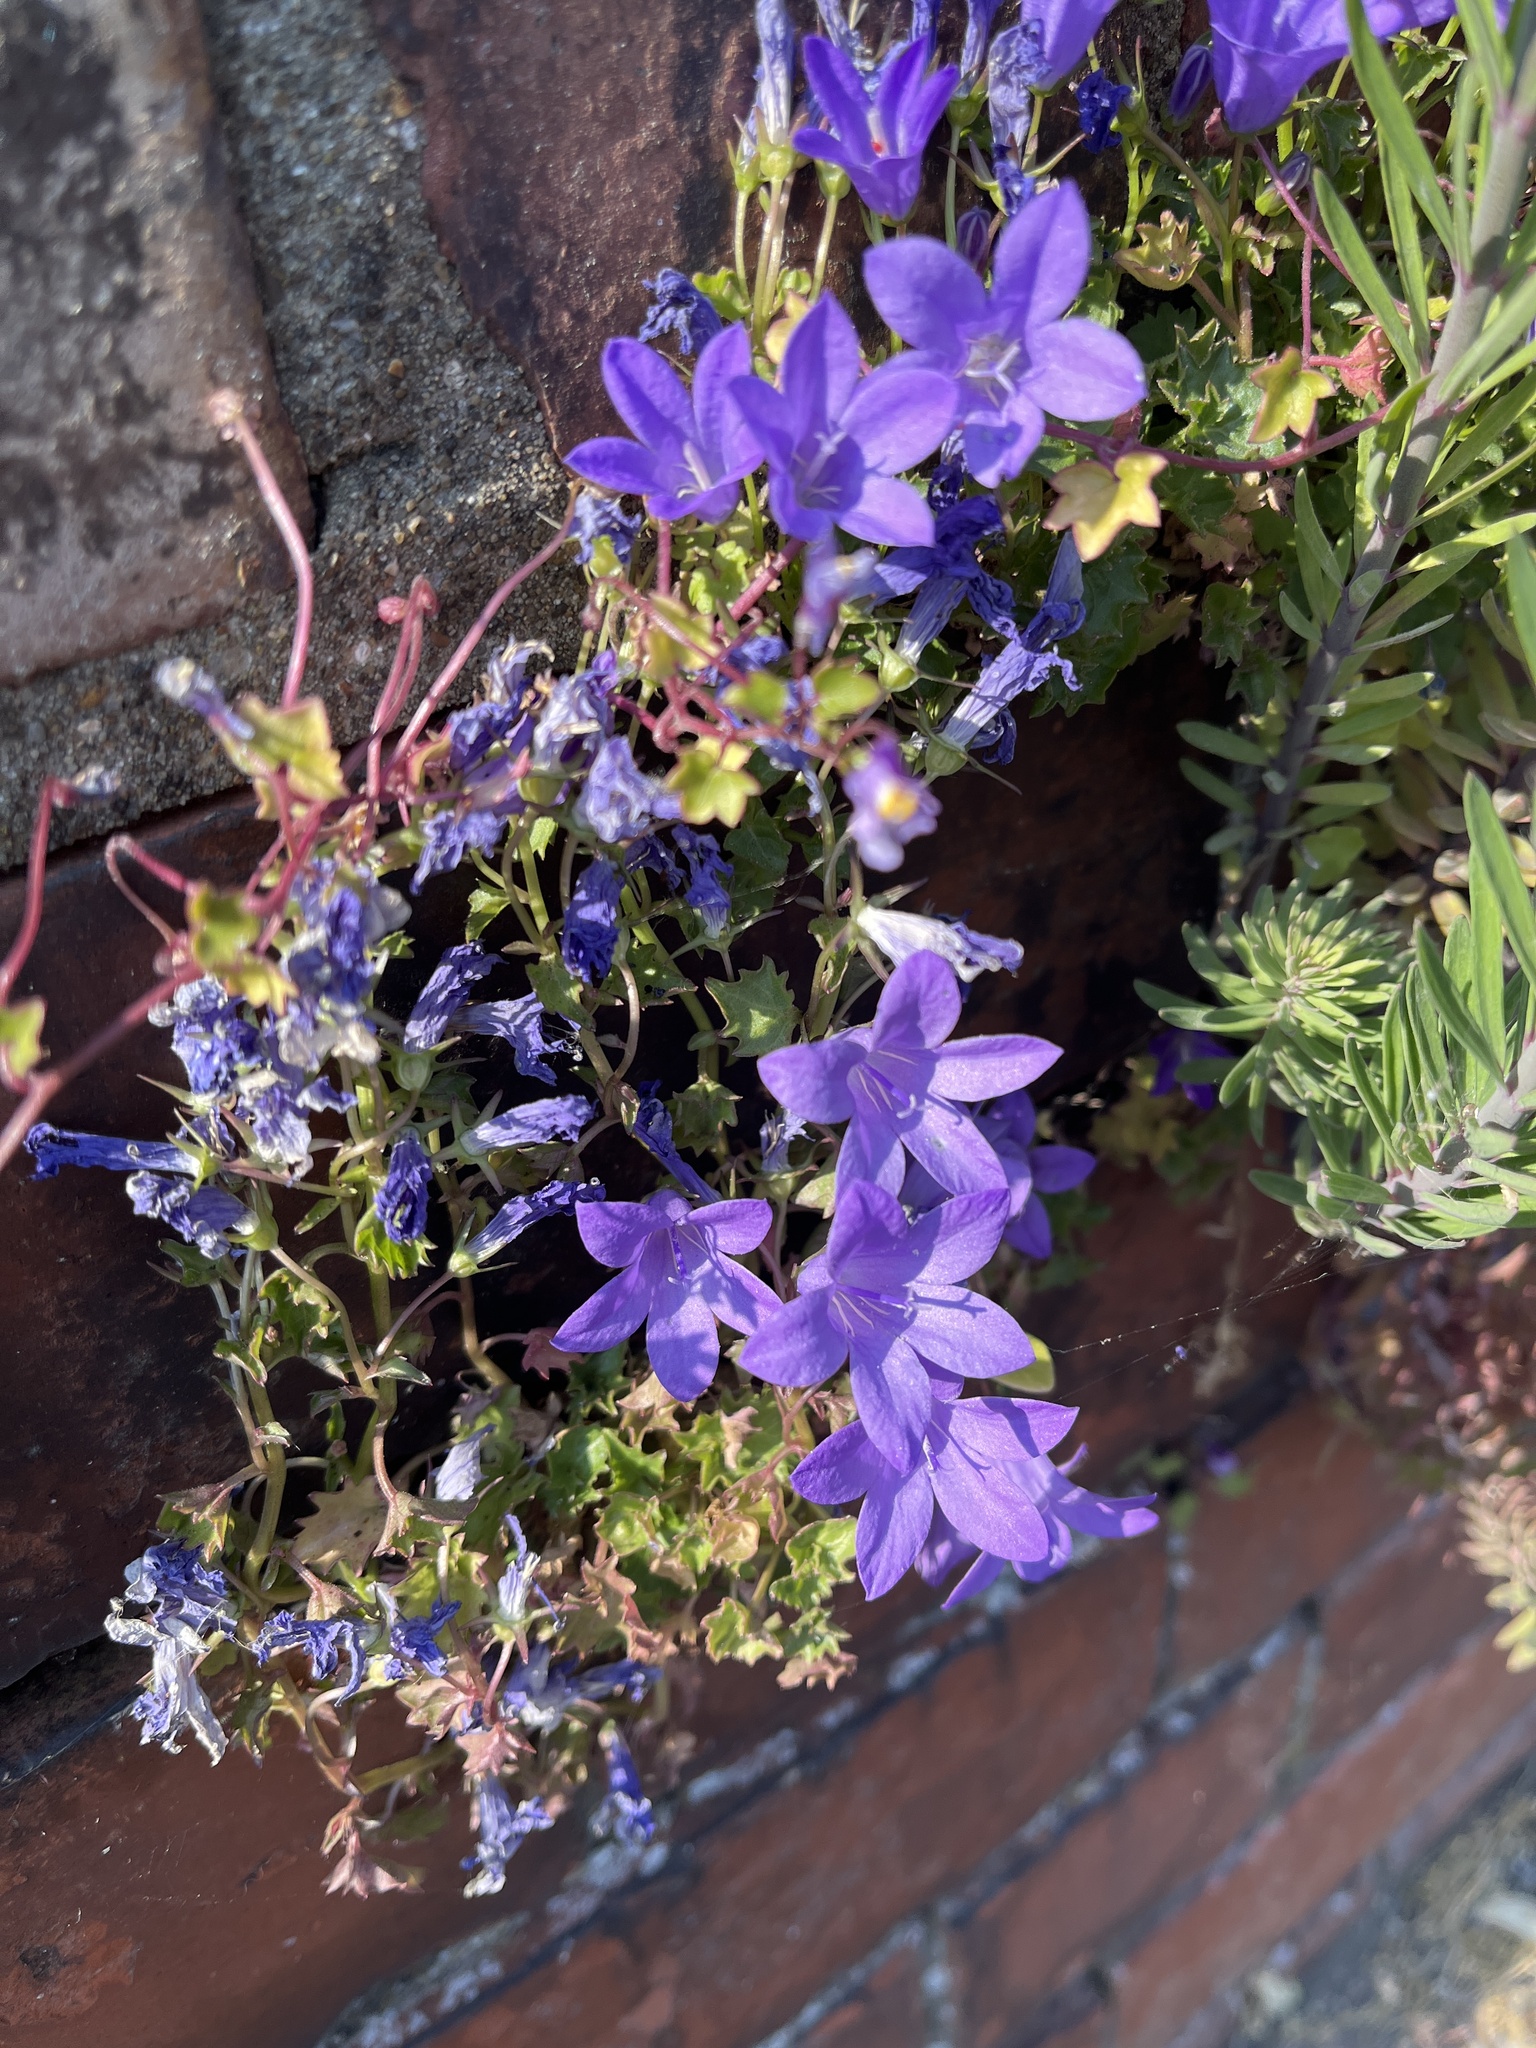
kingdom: Plantae
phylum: Tracheophyta
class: Magnoliopsida
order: Asterales
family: Campanulaceae
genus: Campanula
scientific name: Campanula portenschlagiana
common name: Adria bellflower
